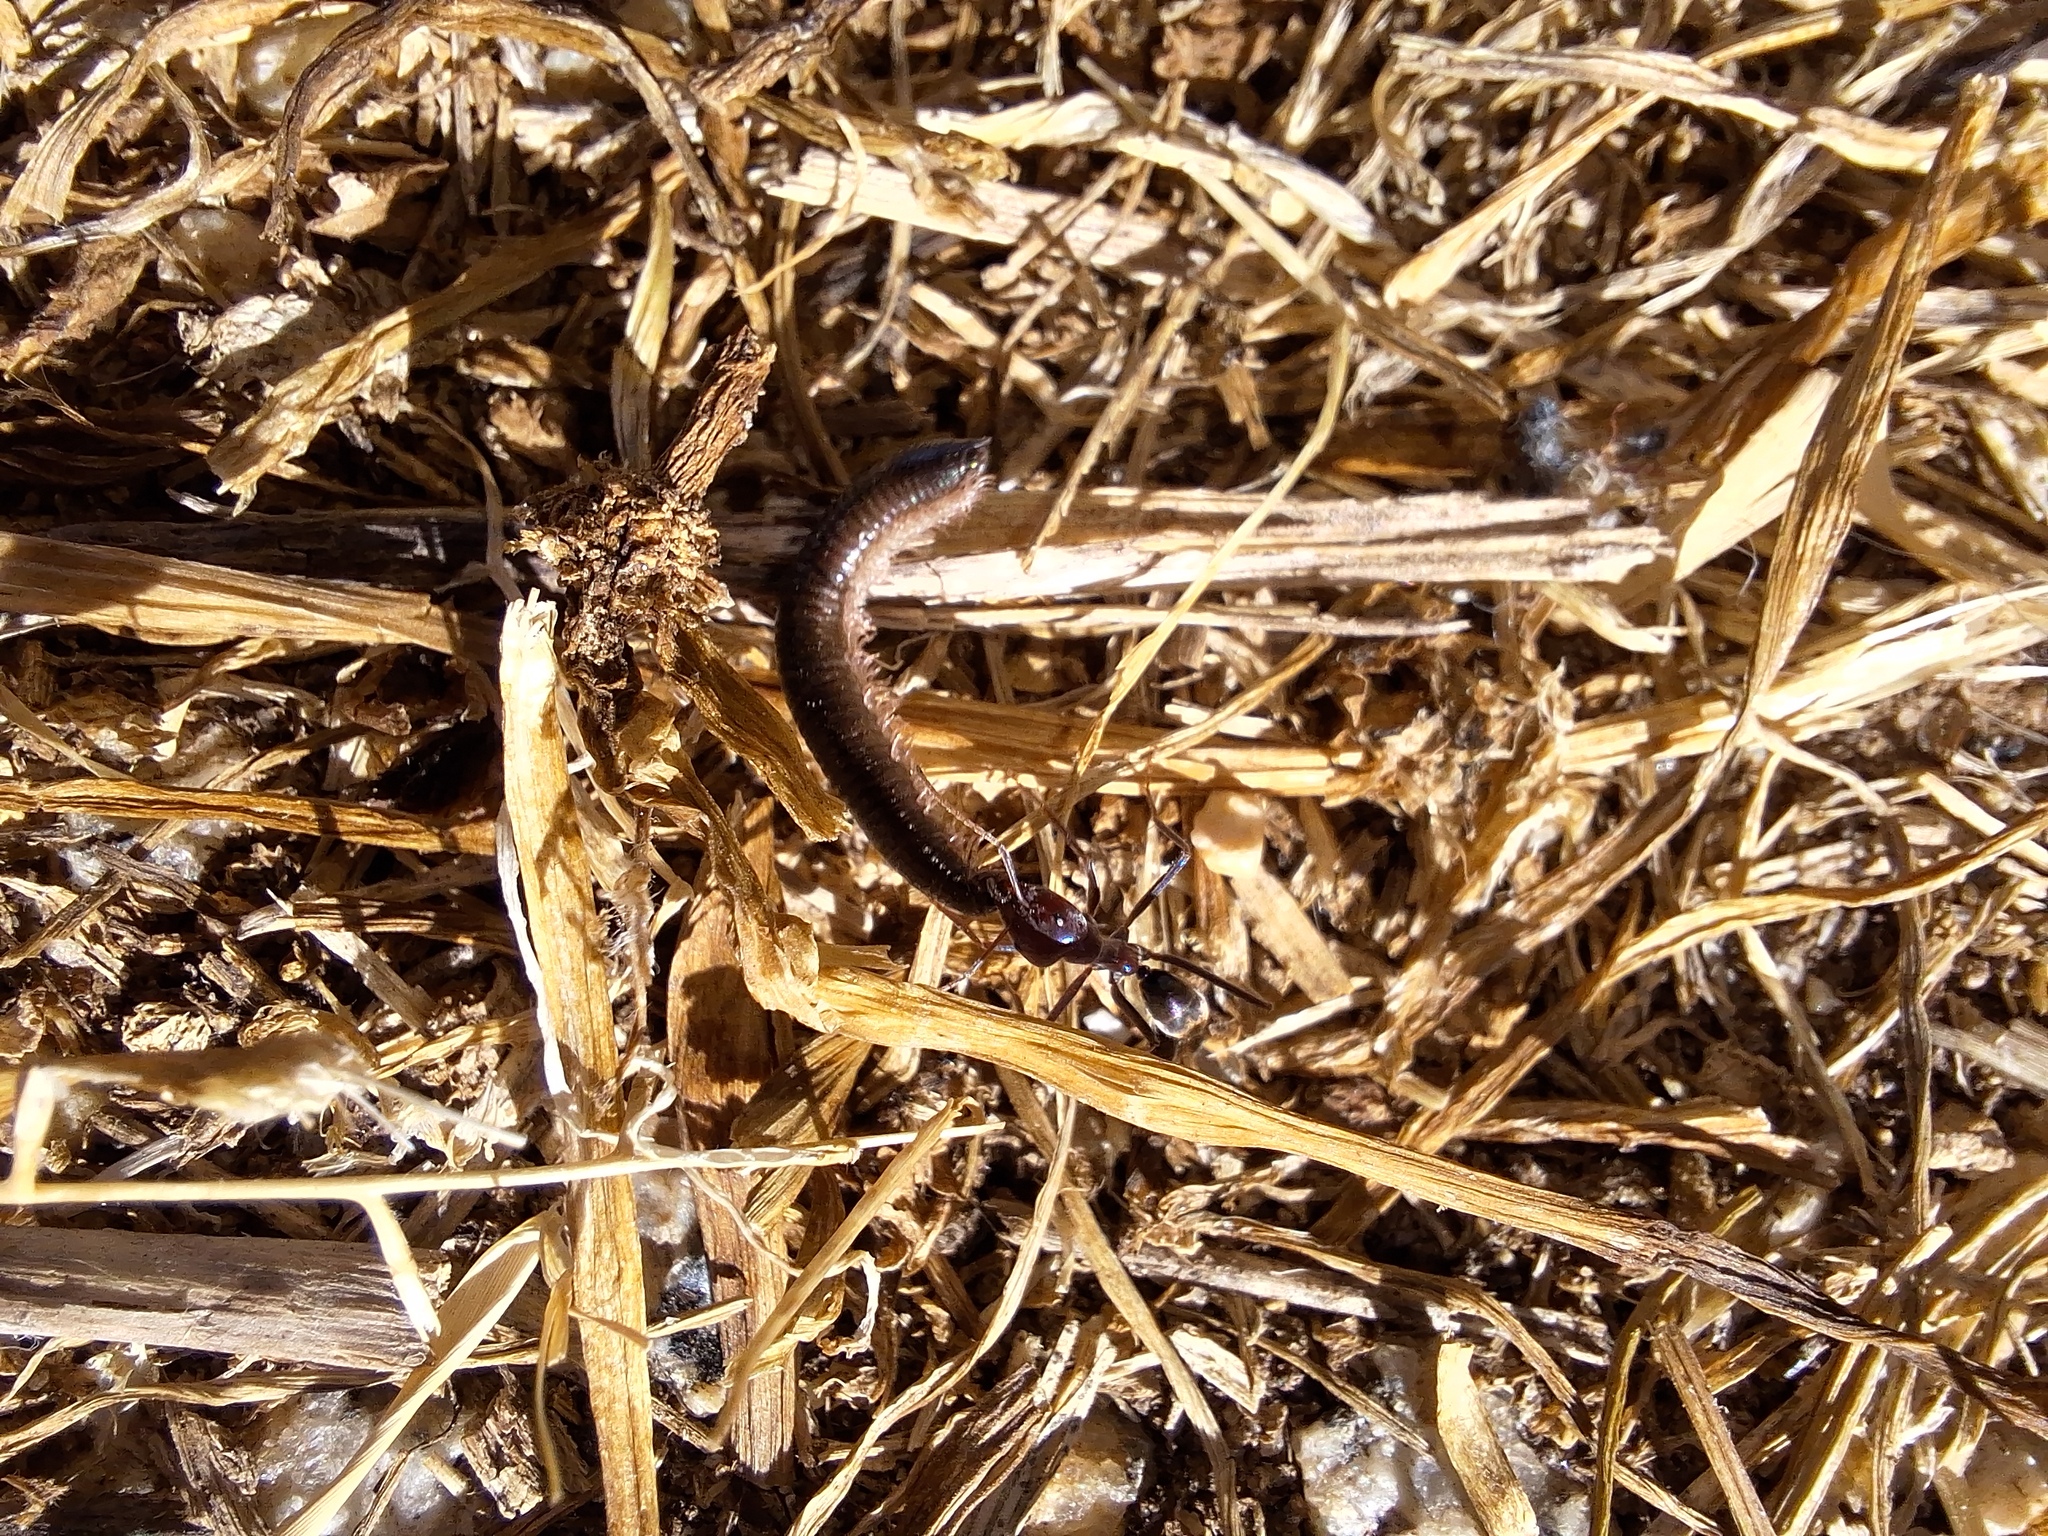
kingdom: Animalia
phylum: Arthropoda
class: Insecta
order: Hymenoptera
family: Formicidae
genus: Iridomyrmex
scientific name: Iridomyrmex purpureus
